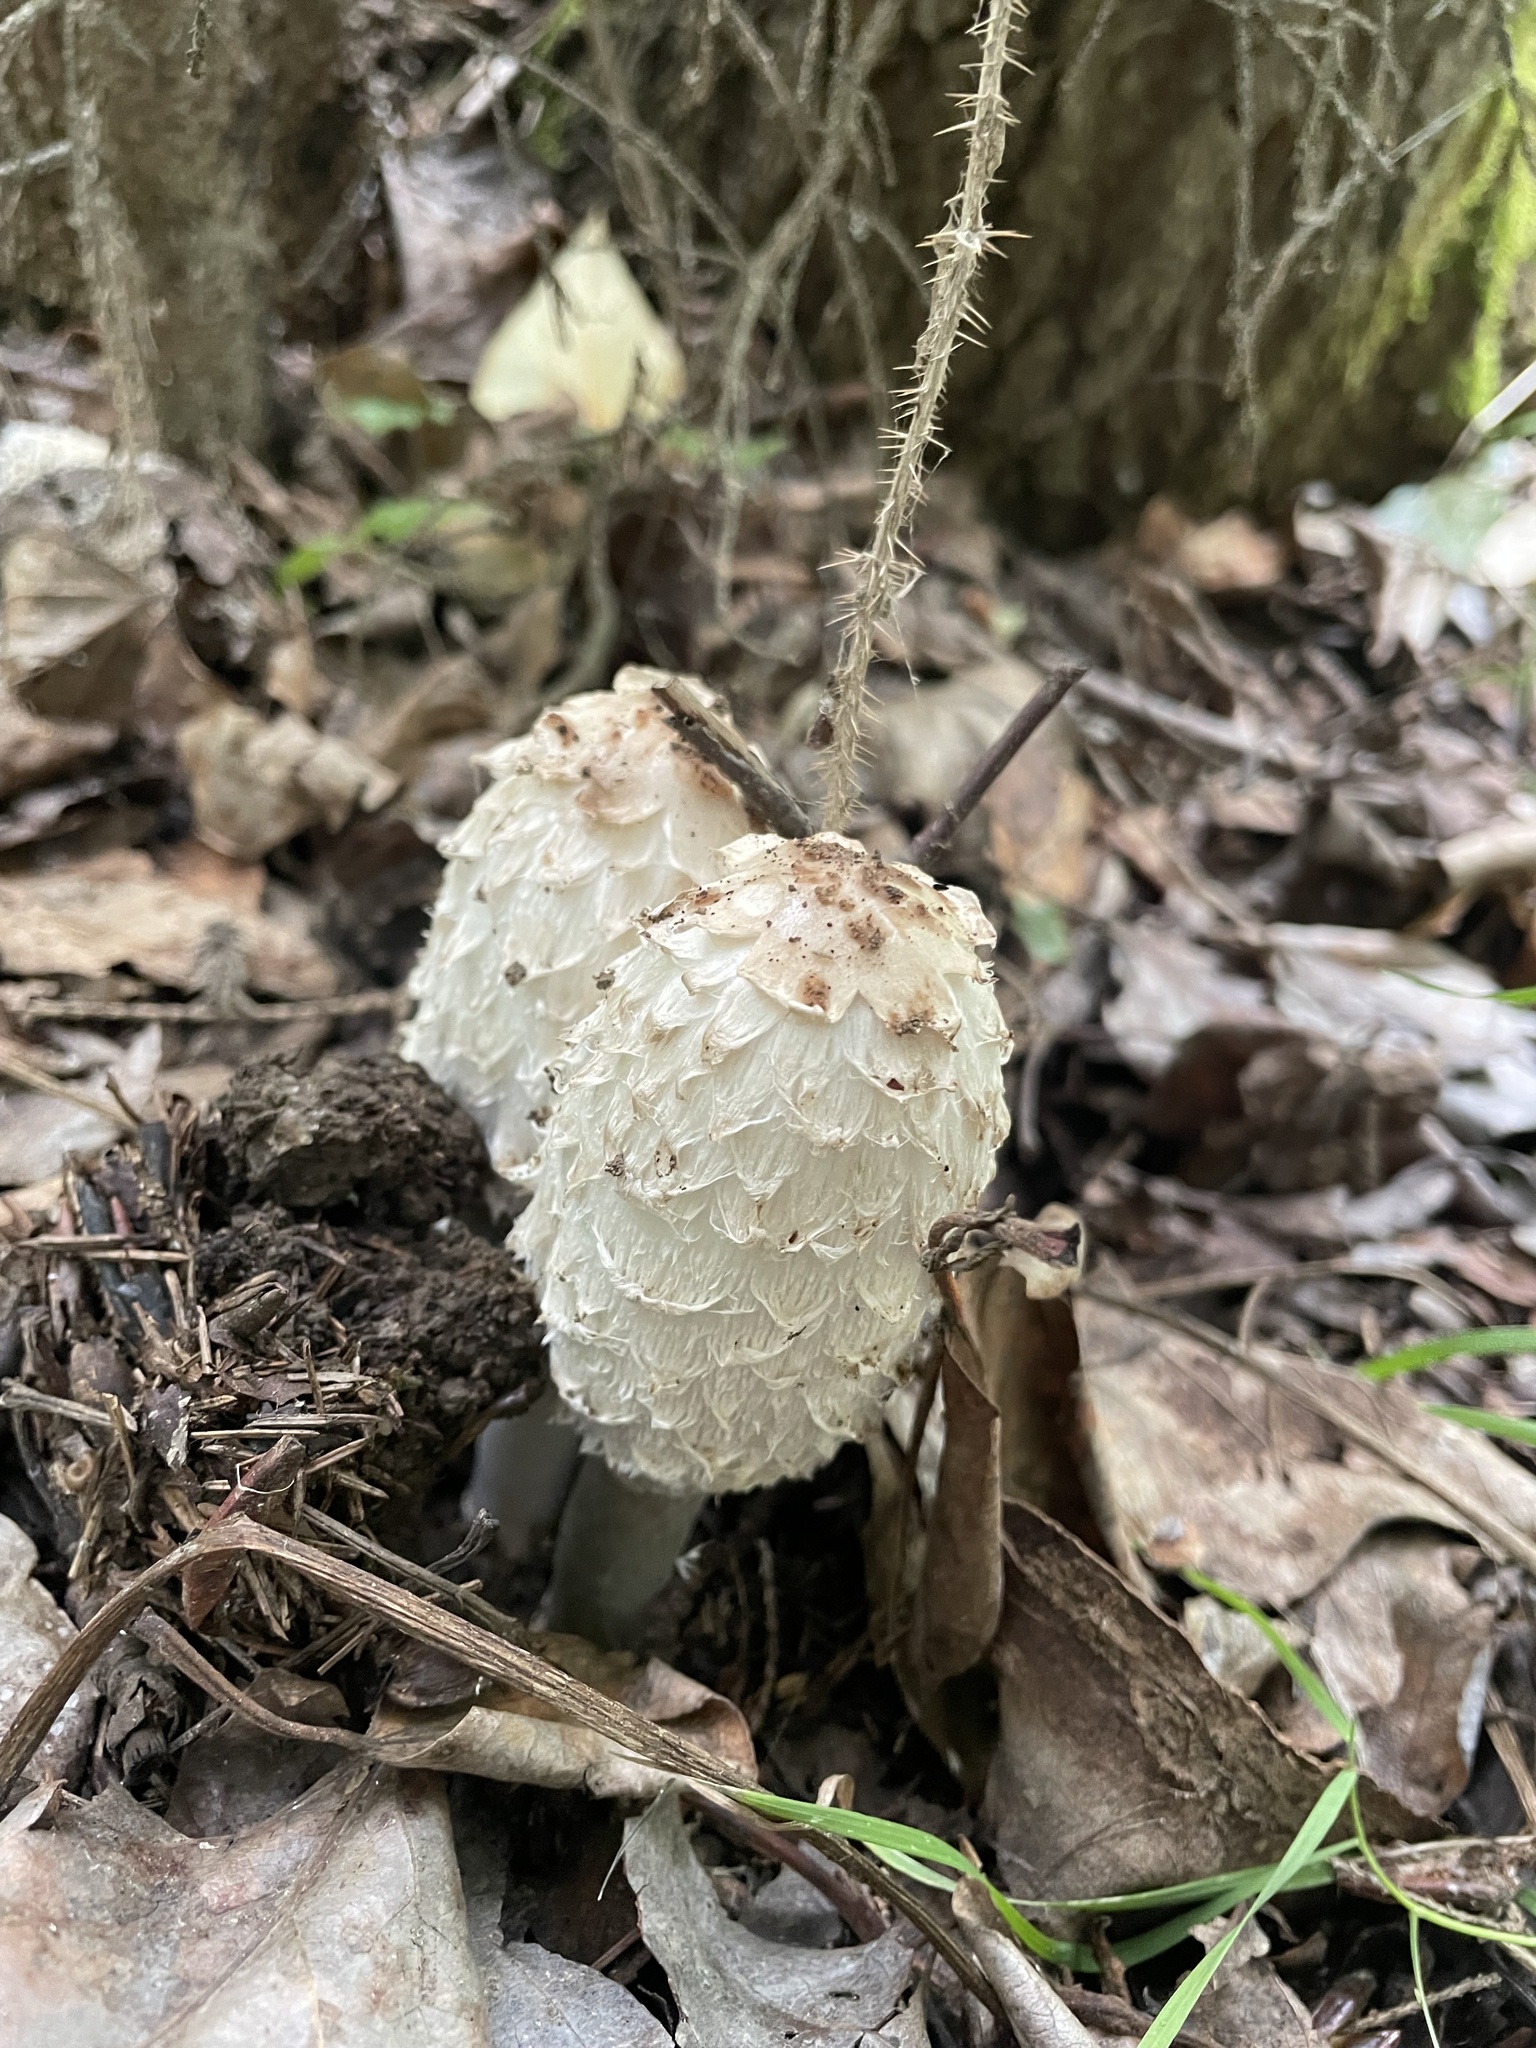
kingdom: Fungi
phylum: Basidiomycota
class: Agaricomycetes
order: Agaricales
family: Agaricaceae
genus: Coprinus
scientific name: Coprinus comatus
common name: Lawyer's wig
